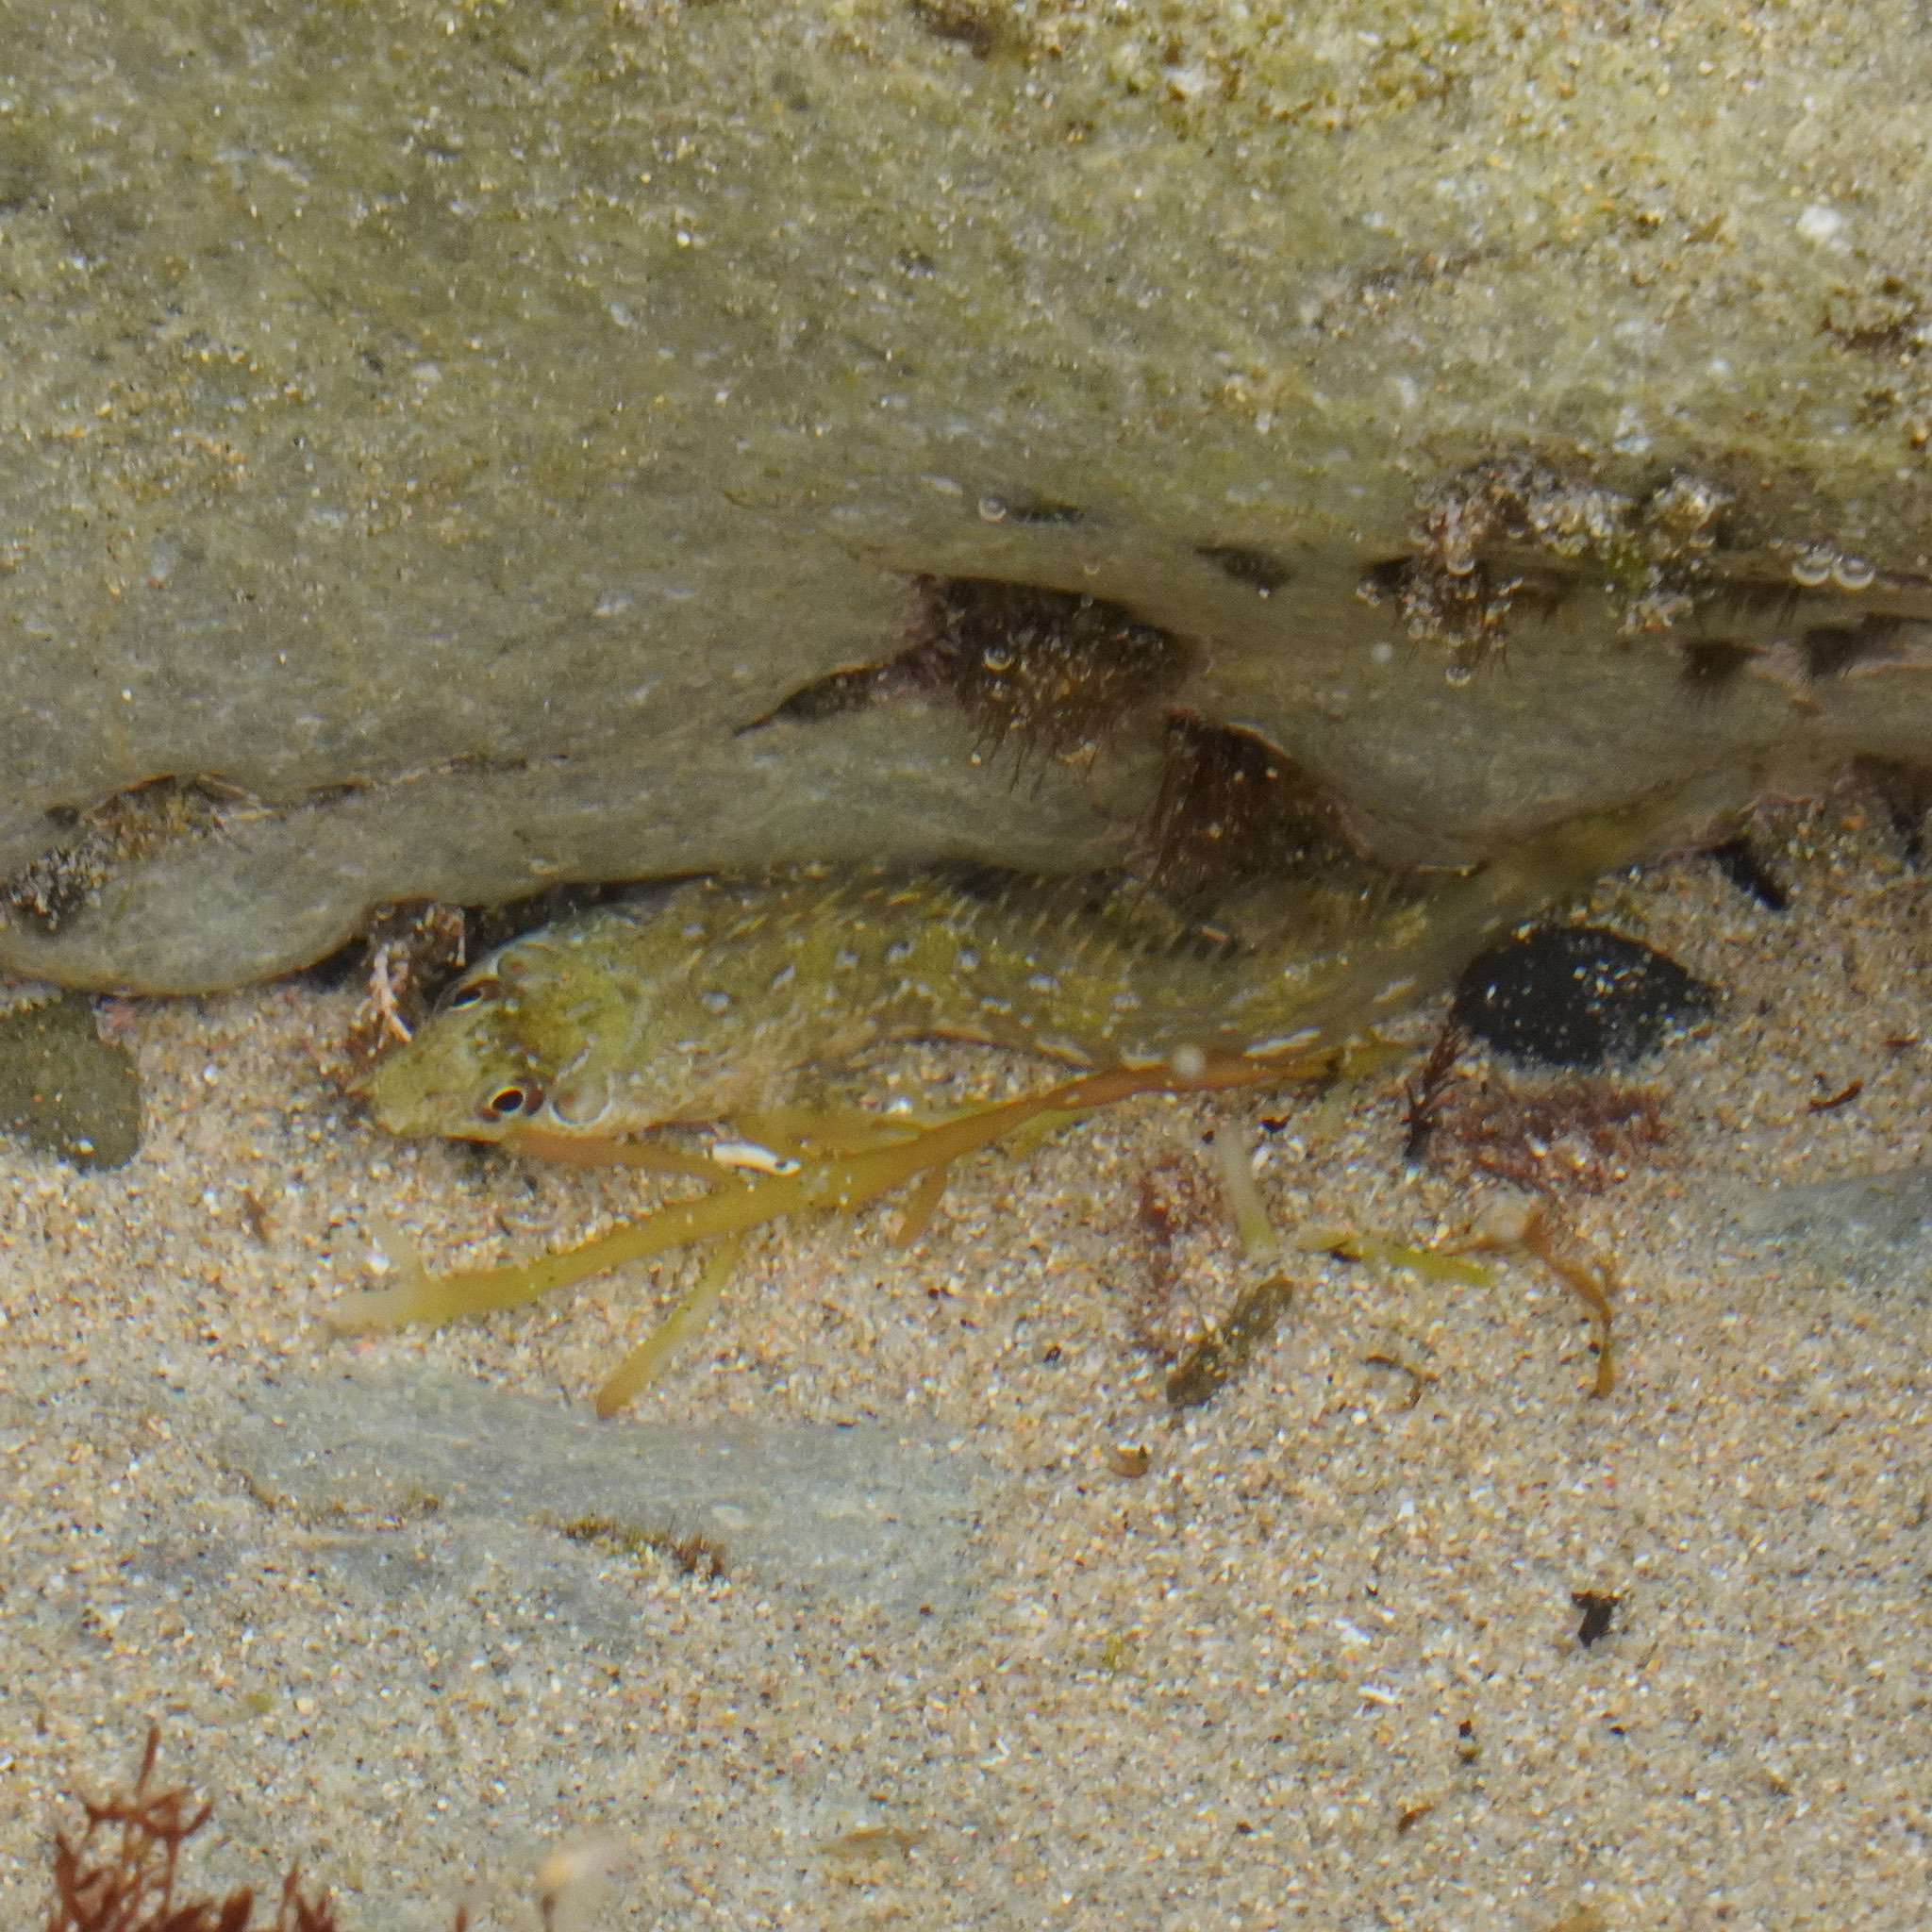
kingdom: Animalia
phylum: Chordata
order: Perciformes
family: Blenniidae
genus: Lipophrys
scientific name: Lipophrys pholis
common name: Shanny
